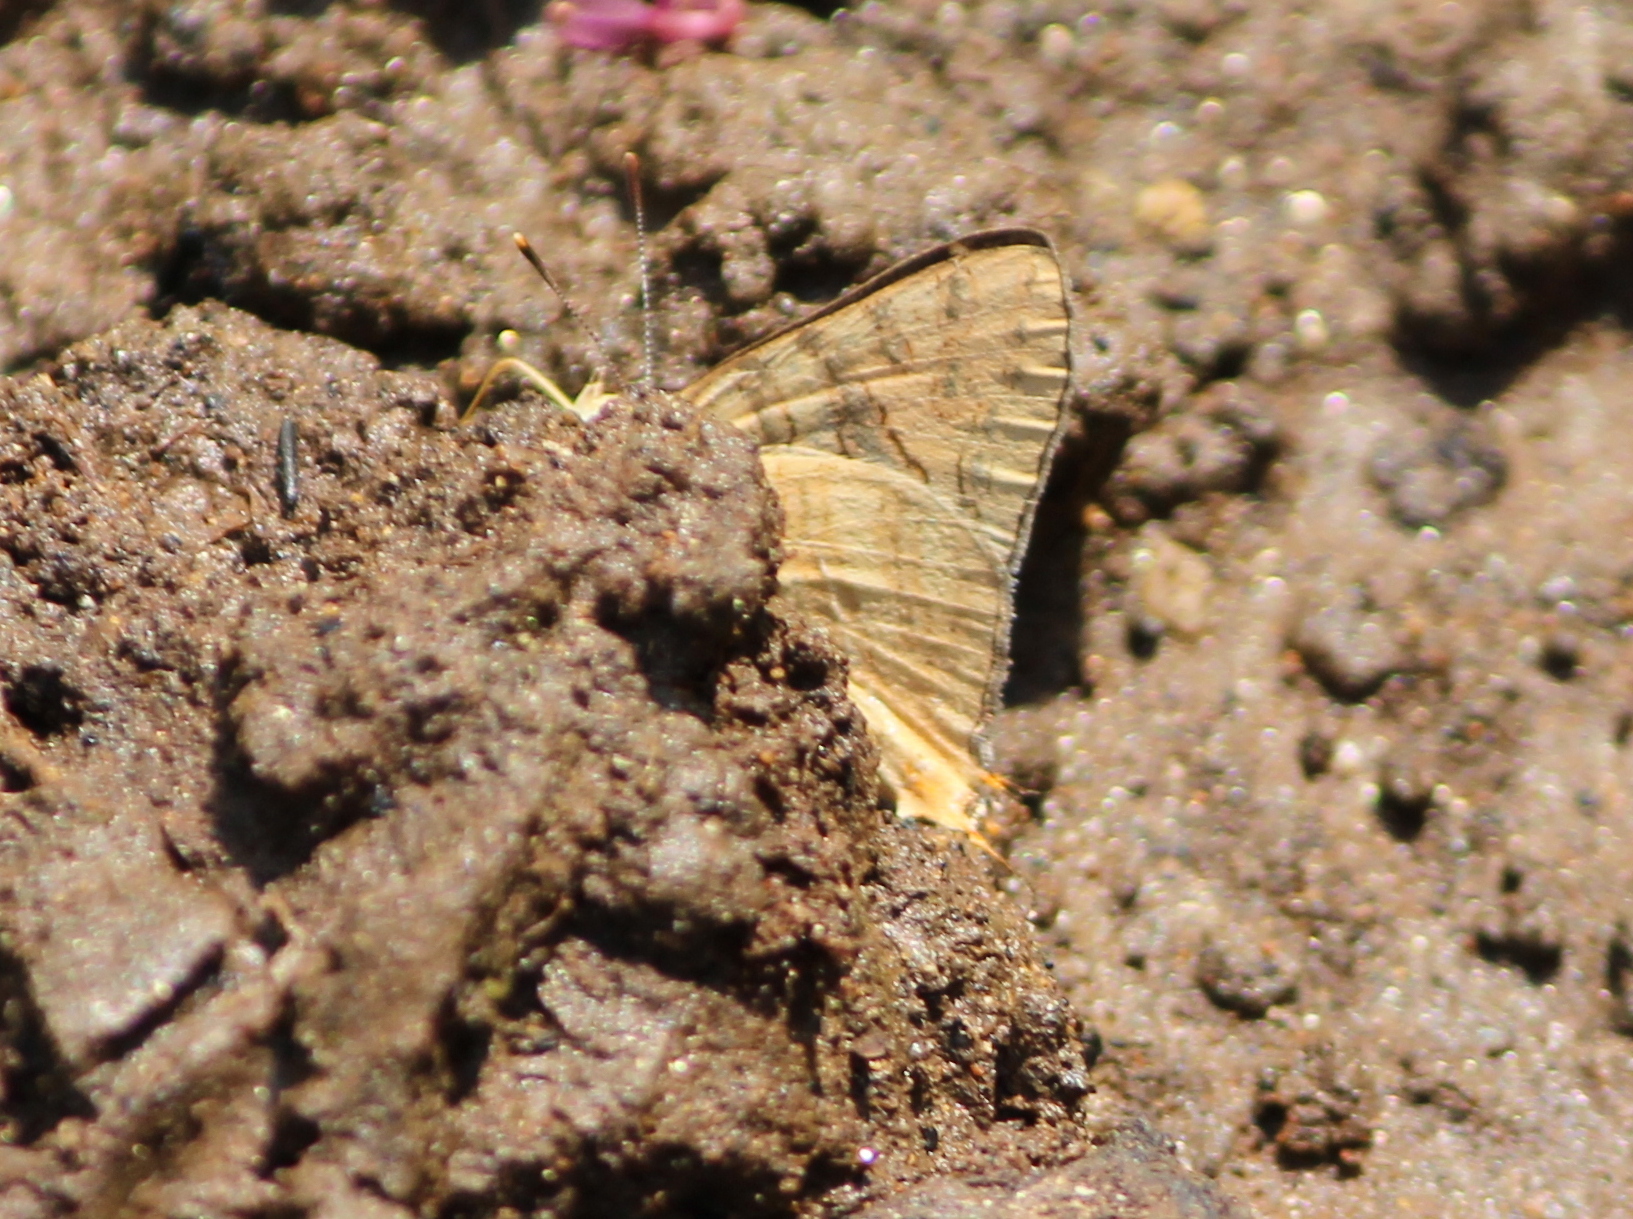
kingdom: Animalia
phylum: Arthropoda
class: Insecta
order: Lepidoptera
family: Lycaenidae
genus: Cigaritis
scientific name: Cigaritis
